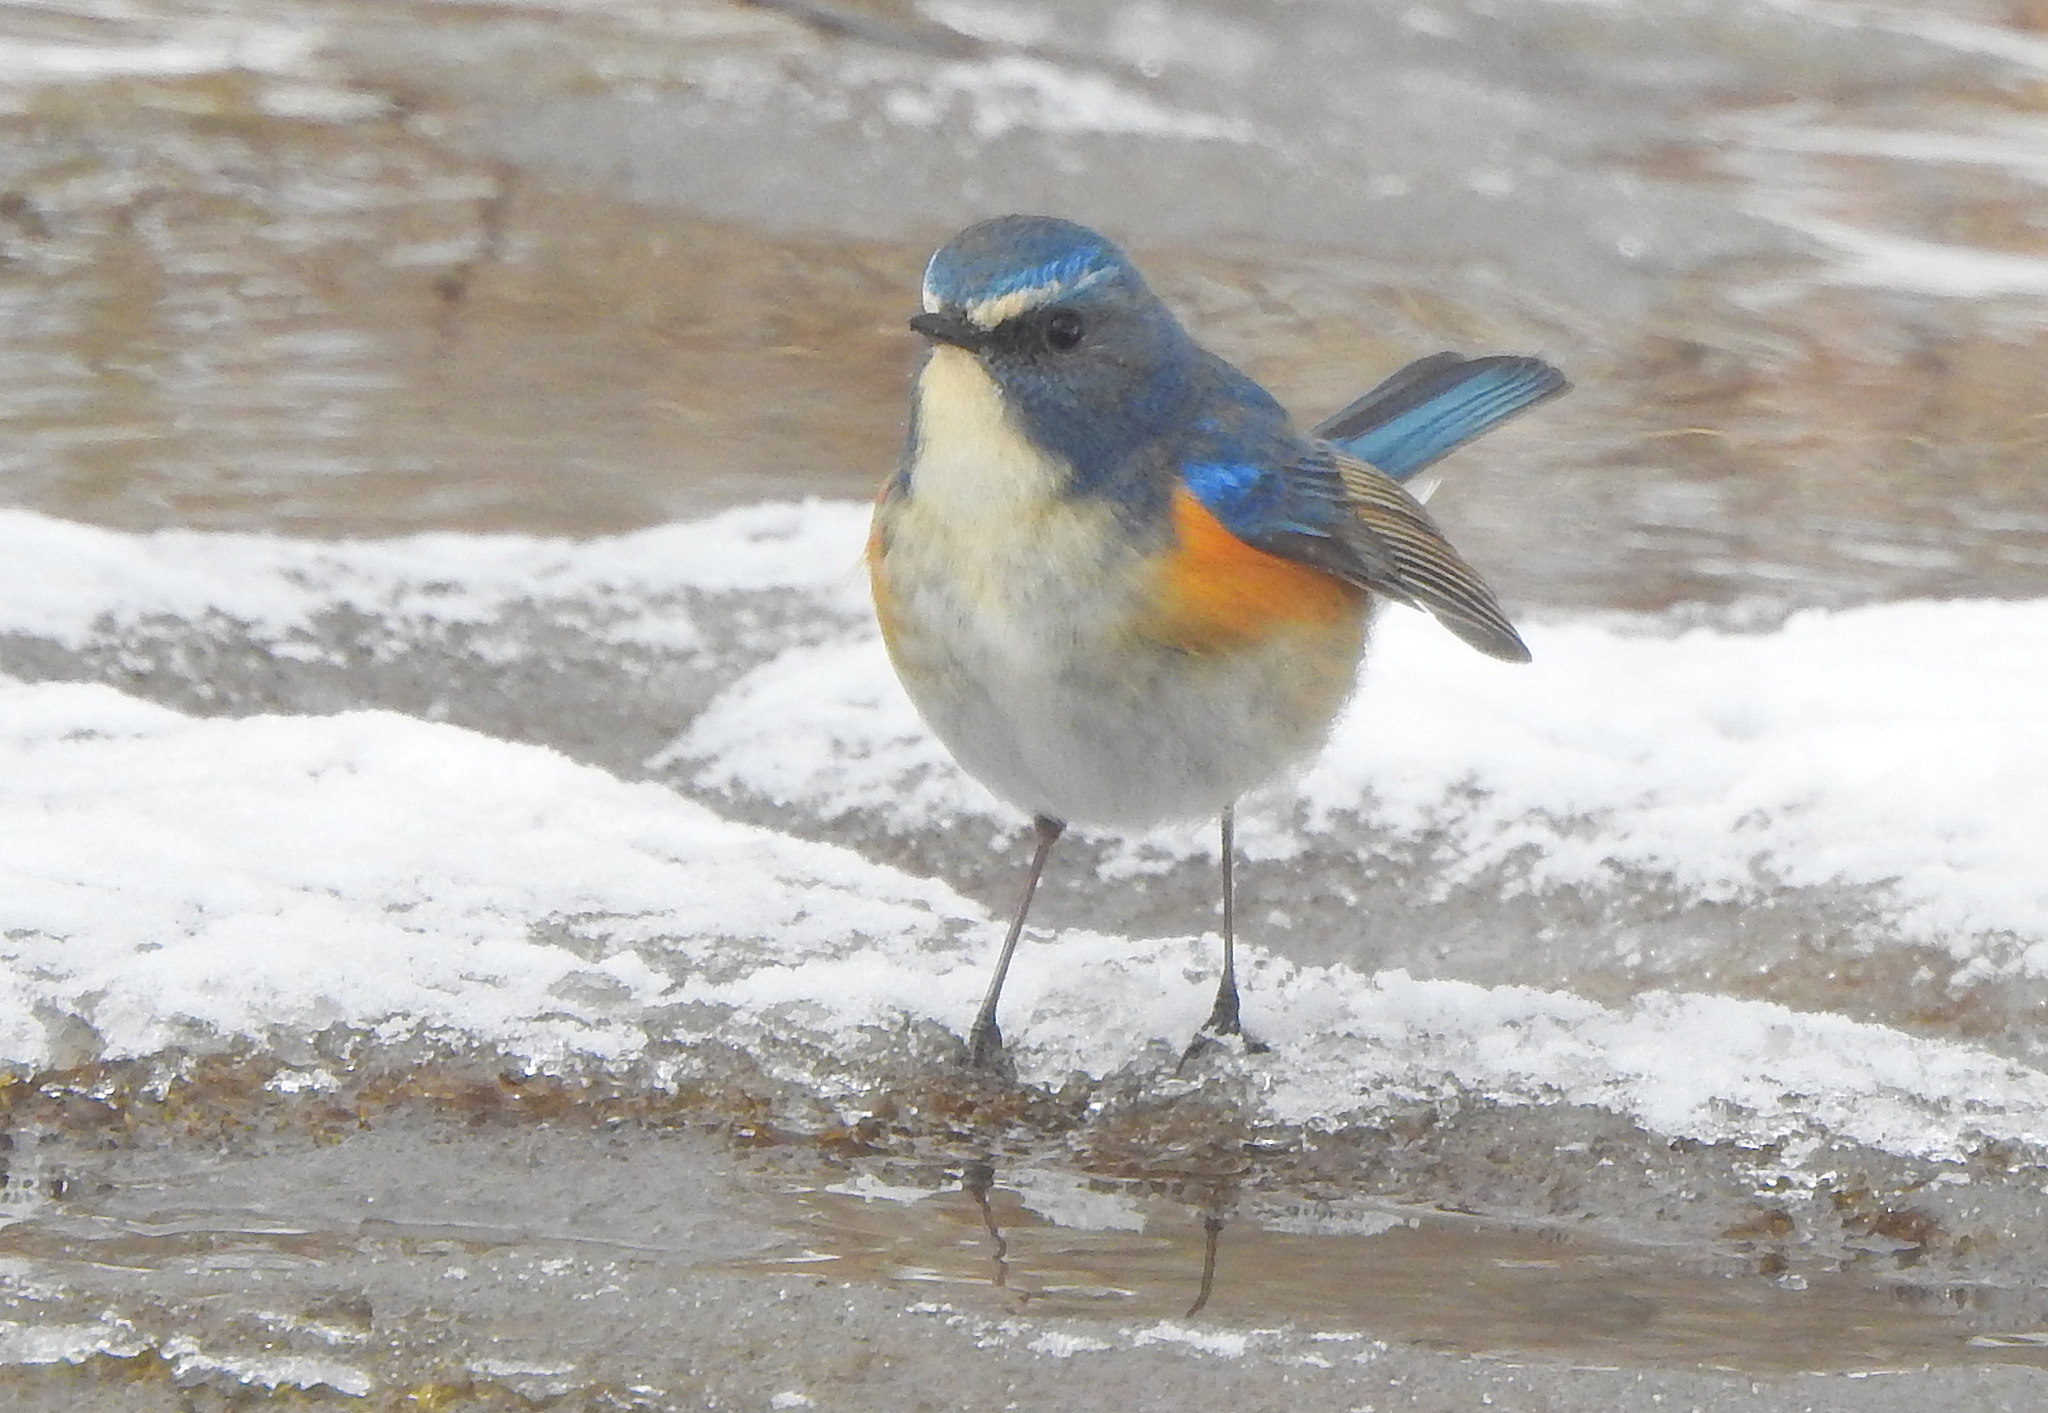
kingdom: Animalia
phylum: Chordata
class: Aves
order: Passeriformes
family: Muscicapidae
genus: Tarsiger
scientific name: Tarsiger cyanurus
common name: Red-flanked bluetail
